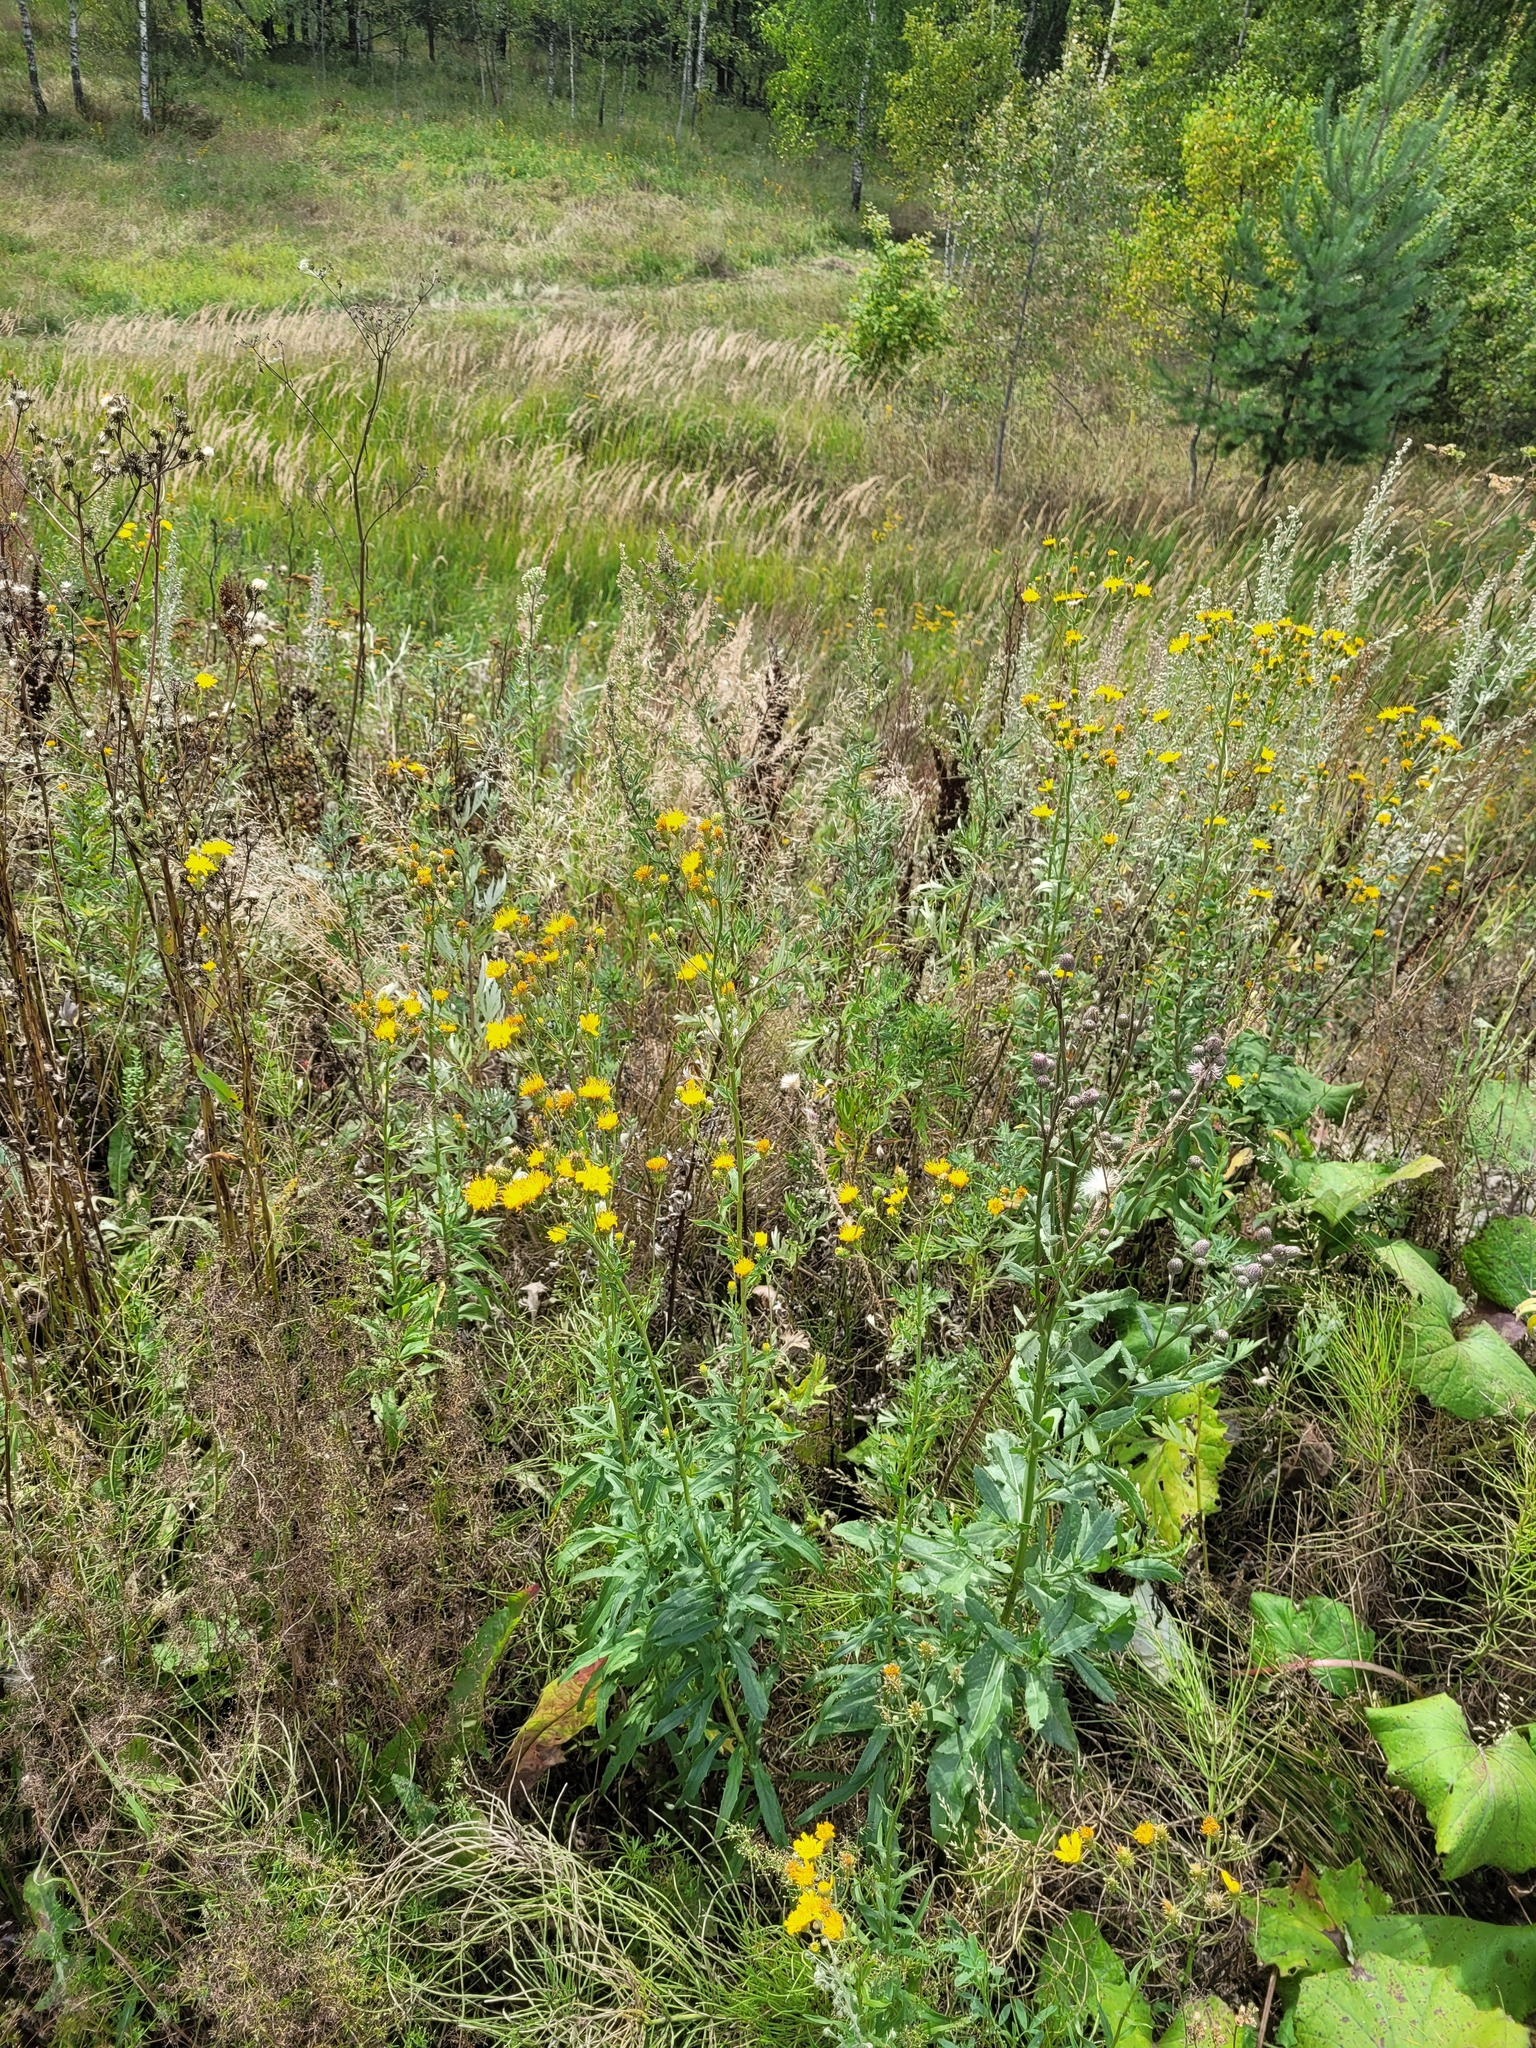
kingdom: Plantae
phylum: Tracheophyta
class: Magnoliopsida
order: Asterales
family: Asteraceae
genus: Hieracium
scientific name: Hieracium umbellatum
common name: Northern hawkweed
